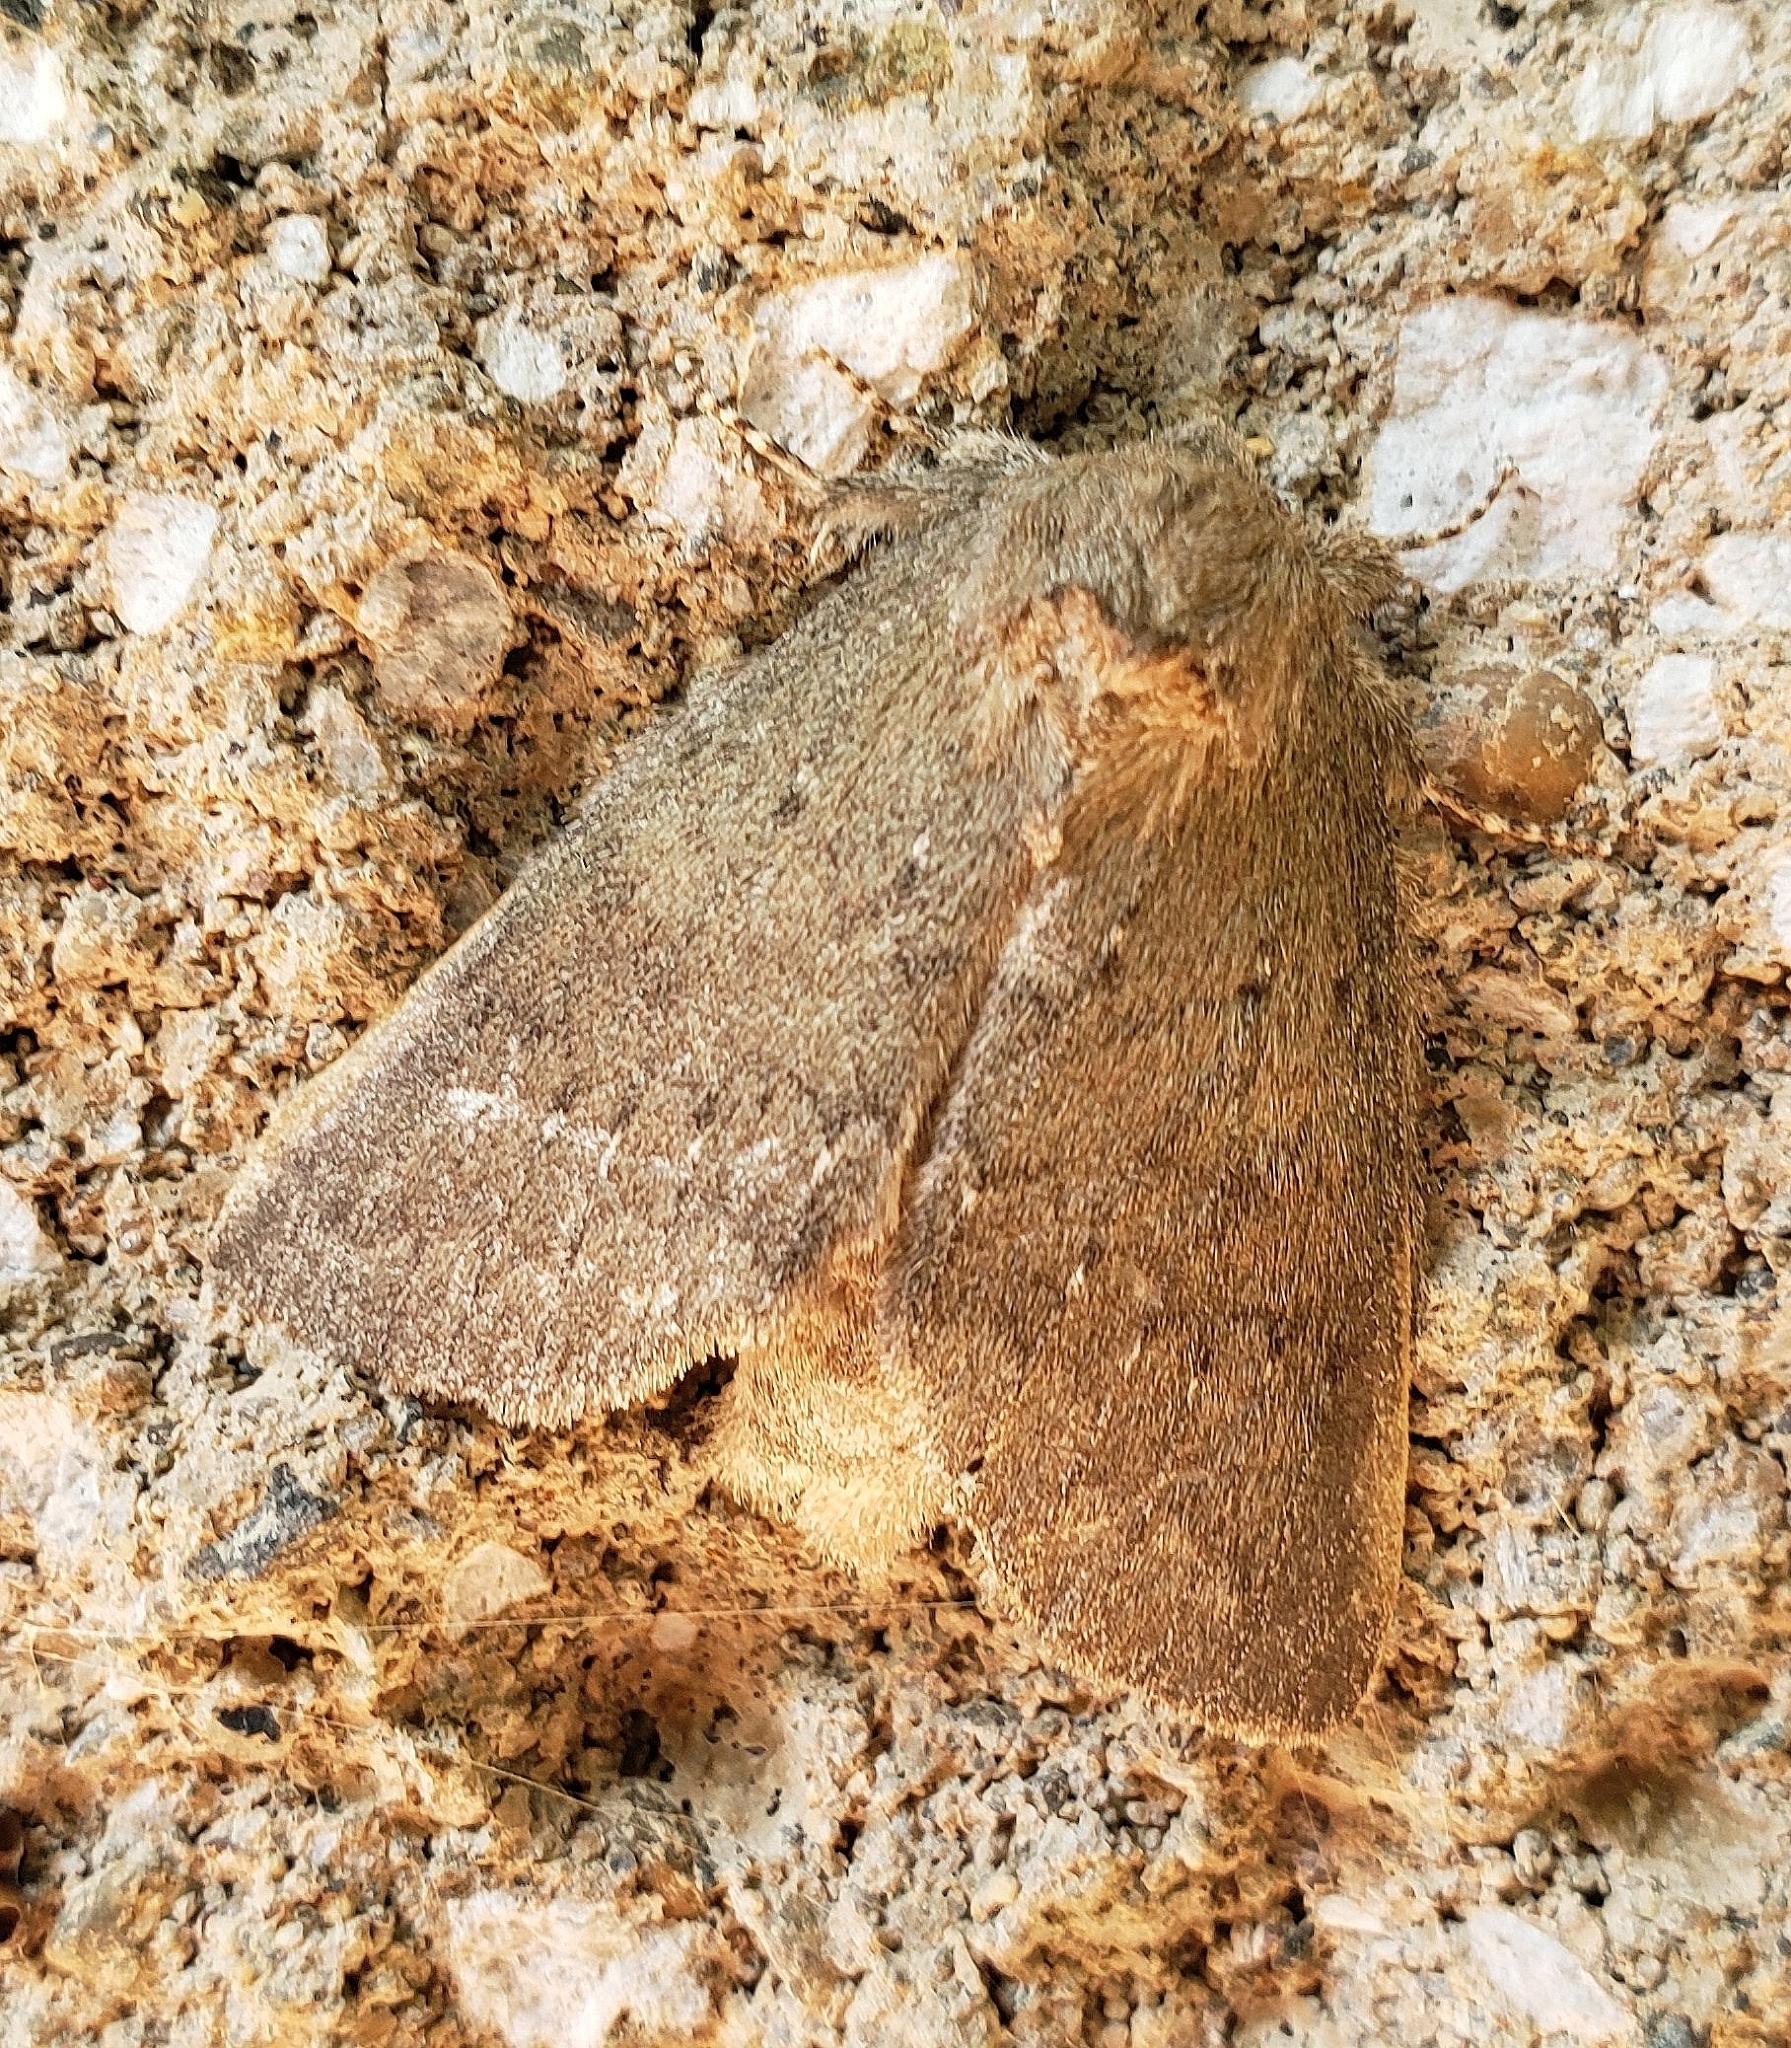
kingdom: Animalia
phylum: Arthropoda
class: Insecta
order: Lepidoptera
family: Notodontidae
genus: Misogada
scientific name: Misogada unicolor
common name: Drab prominent
